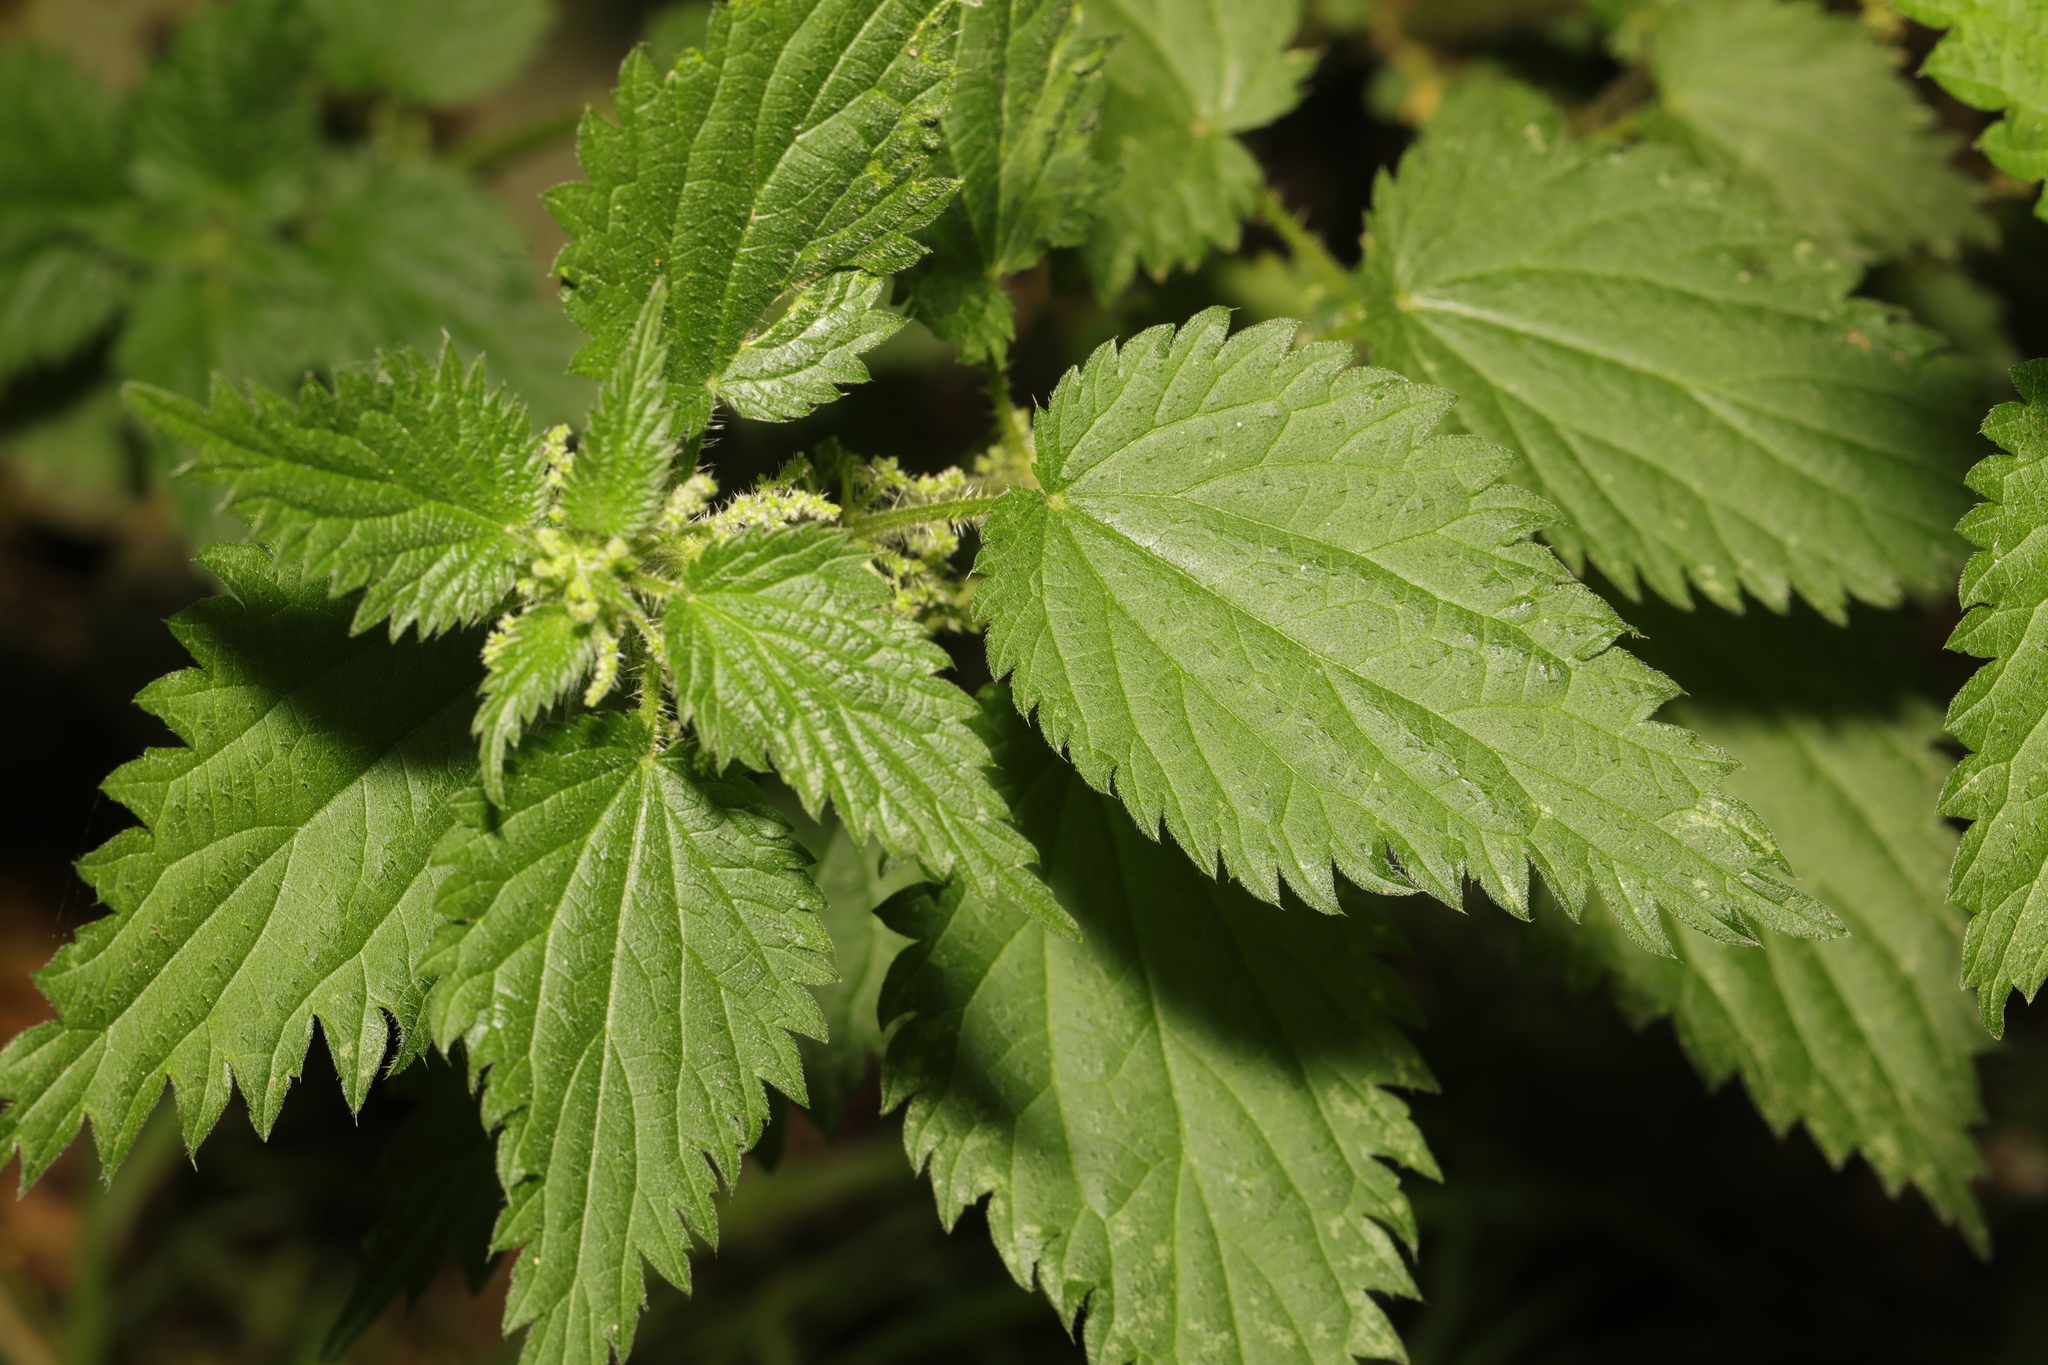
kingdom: Plantae
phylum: Tracheophyta
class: Magnoliopsida
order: Rosales
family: Urticaceae
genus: Urtica
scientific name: Urtica dioica
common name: Common nettle
